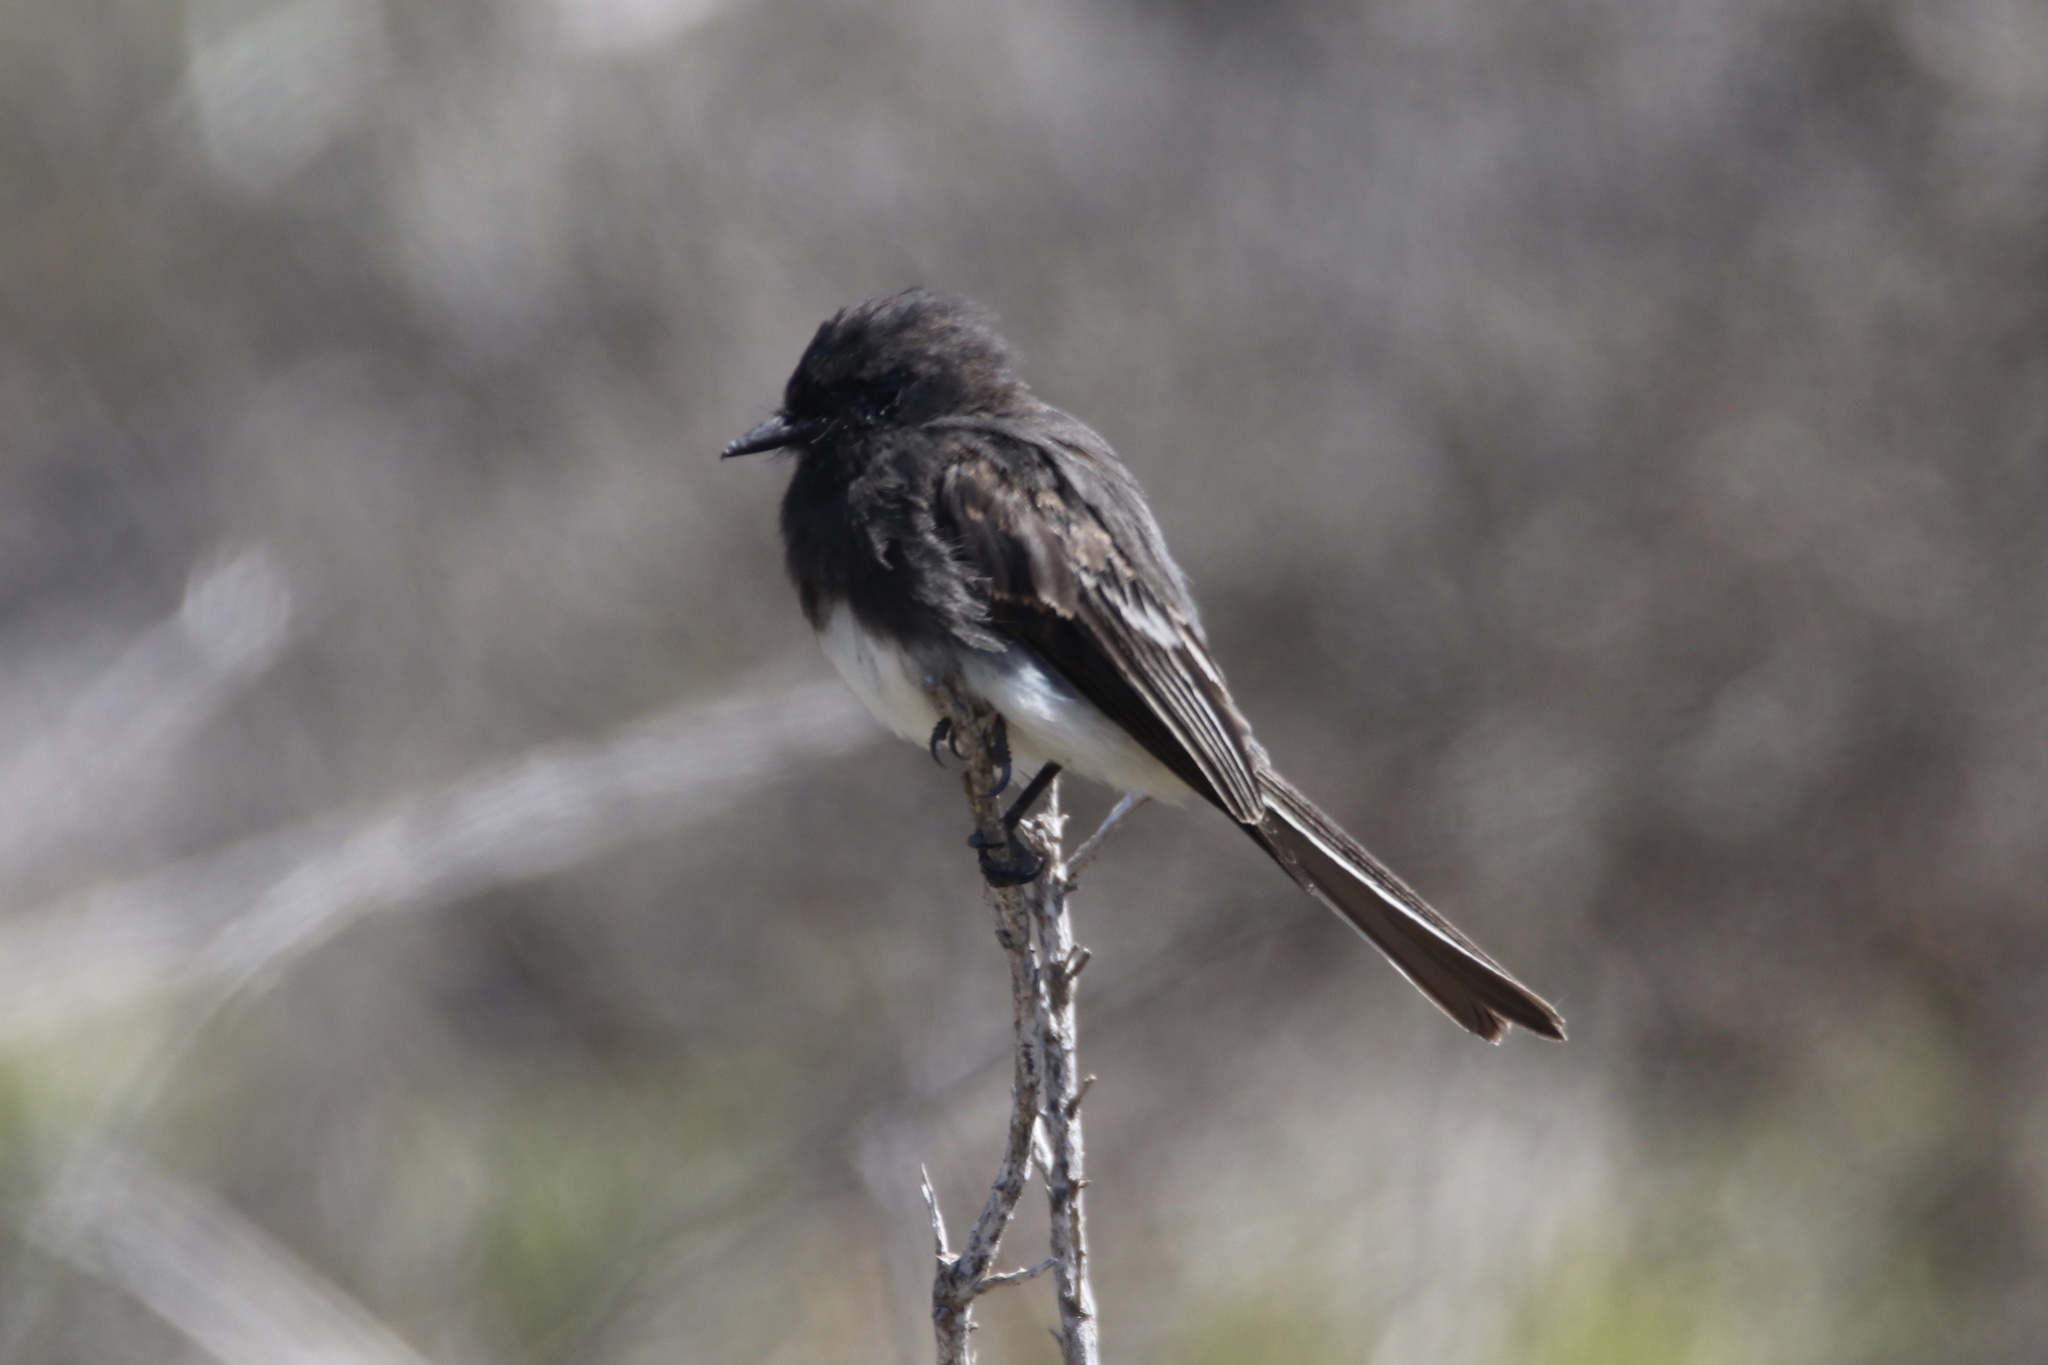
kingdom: Animalia
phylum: Chordata
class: Aves
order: Passeriformes
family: Tyrannidae
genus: Sayornis
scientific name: Sayornis nigricans
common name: Black phoebe
